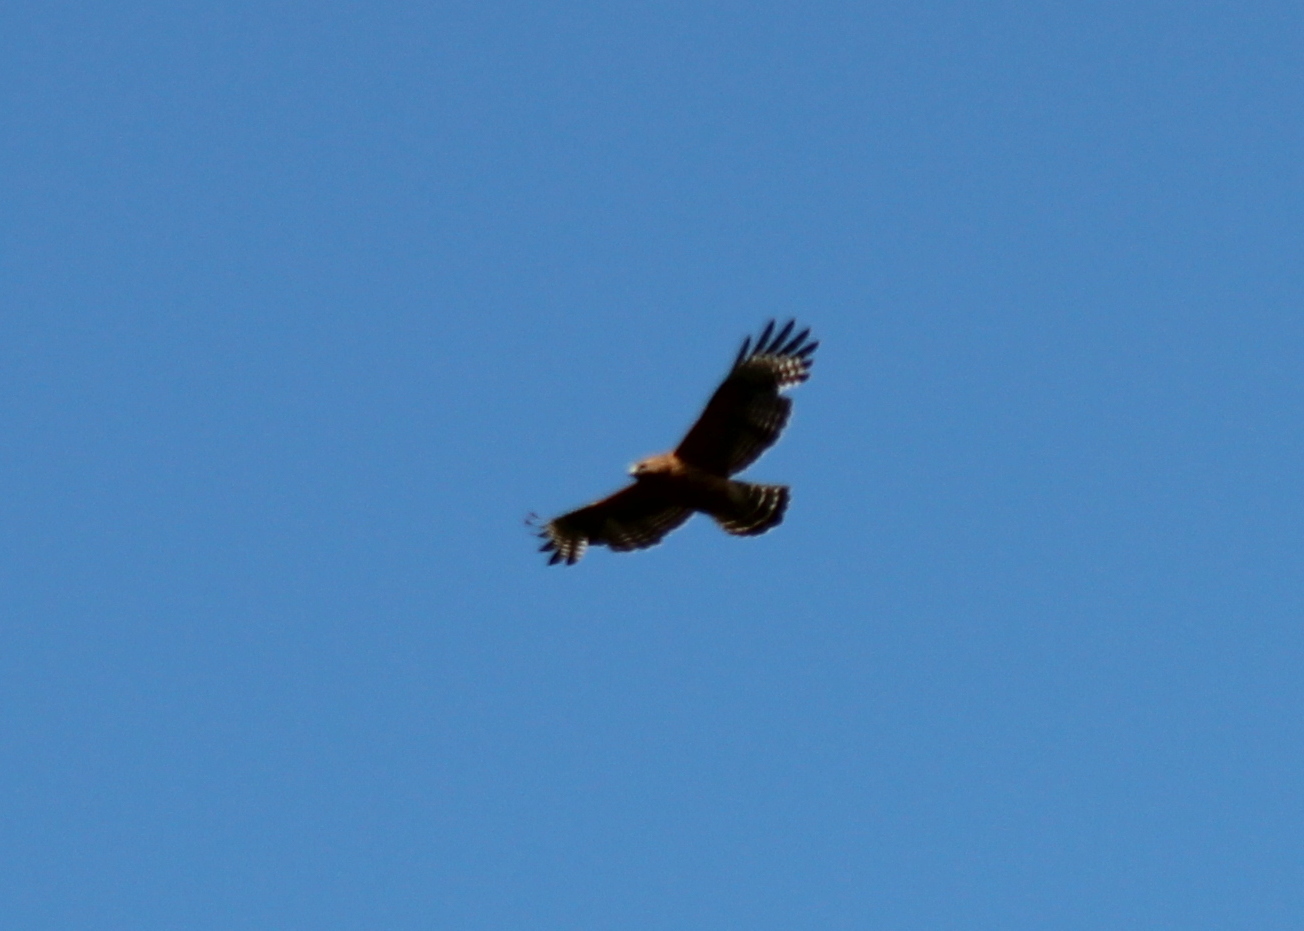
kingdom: Animalia
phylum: Chordata
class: Aves
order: Accipitriformes
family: Accipitridae
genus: Buteo
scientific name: Buteo lineatus
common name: Red-shouldered hawk
